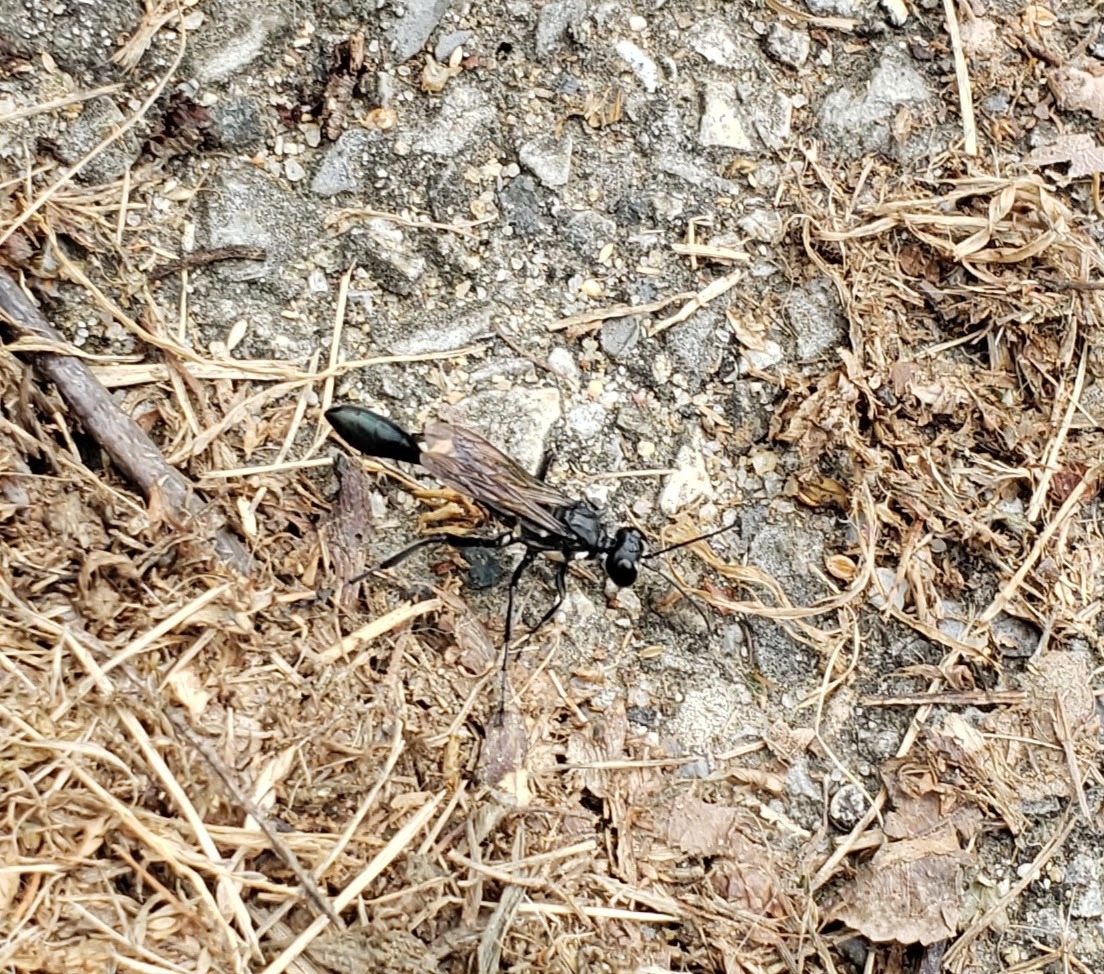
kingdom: Animalia
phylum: Arthropoda
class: Insecta
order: Hymenoptera
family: Sphecidae
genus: Eremnophila
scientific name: Eremnophila aureonotata
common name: Gold-marked thread-waisted wasp
